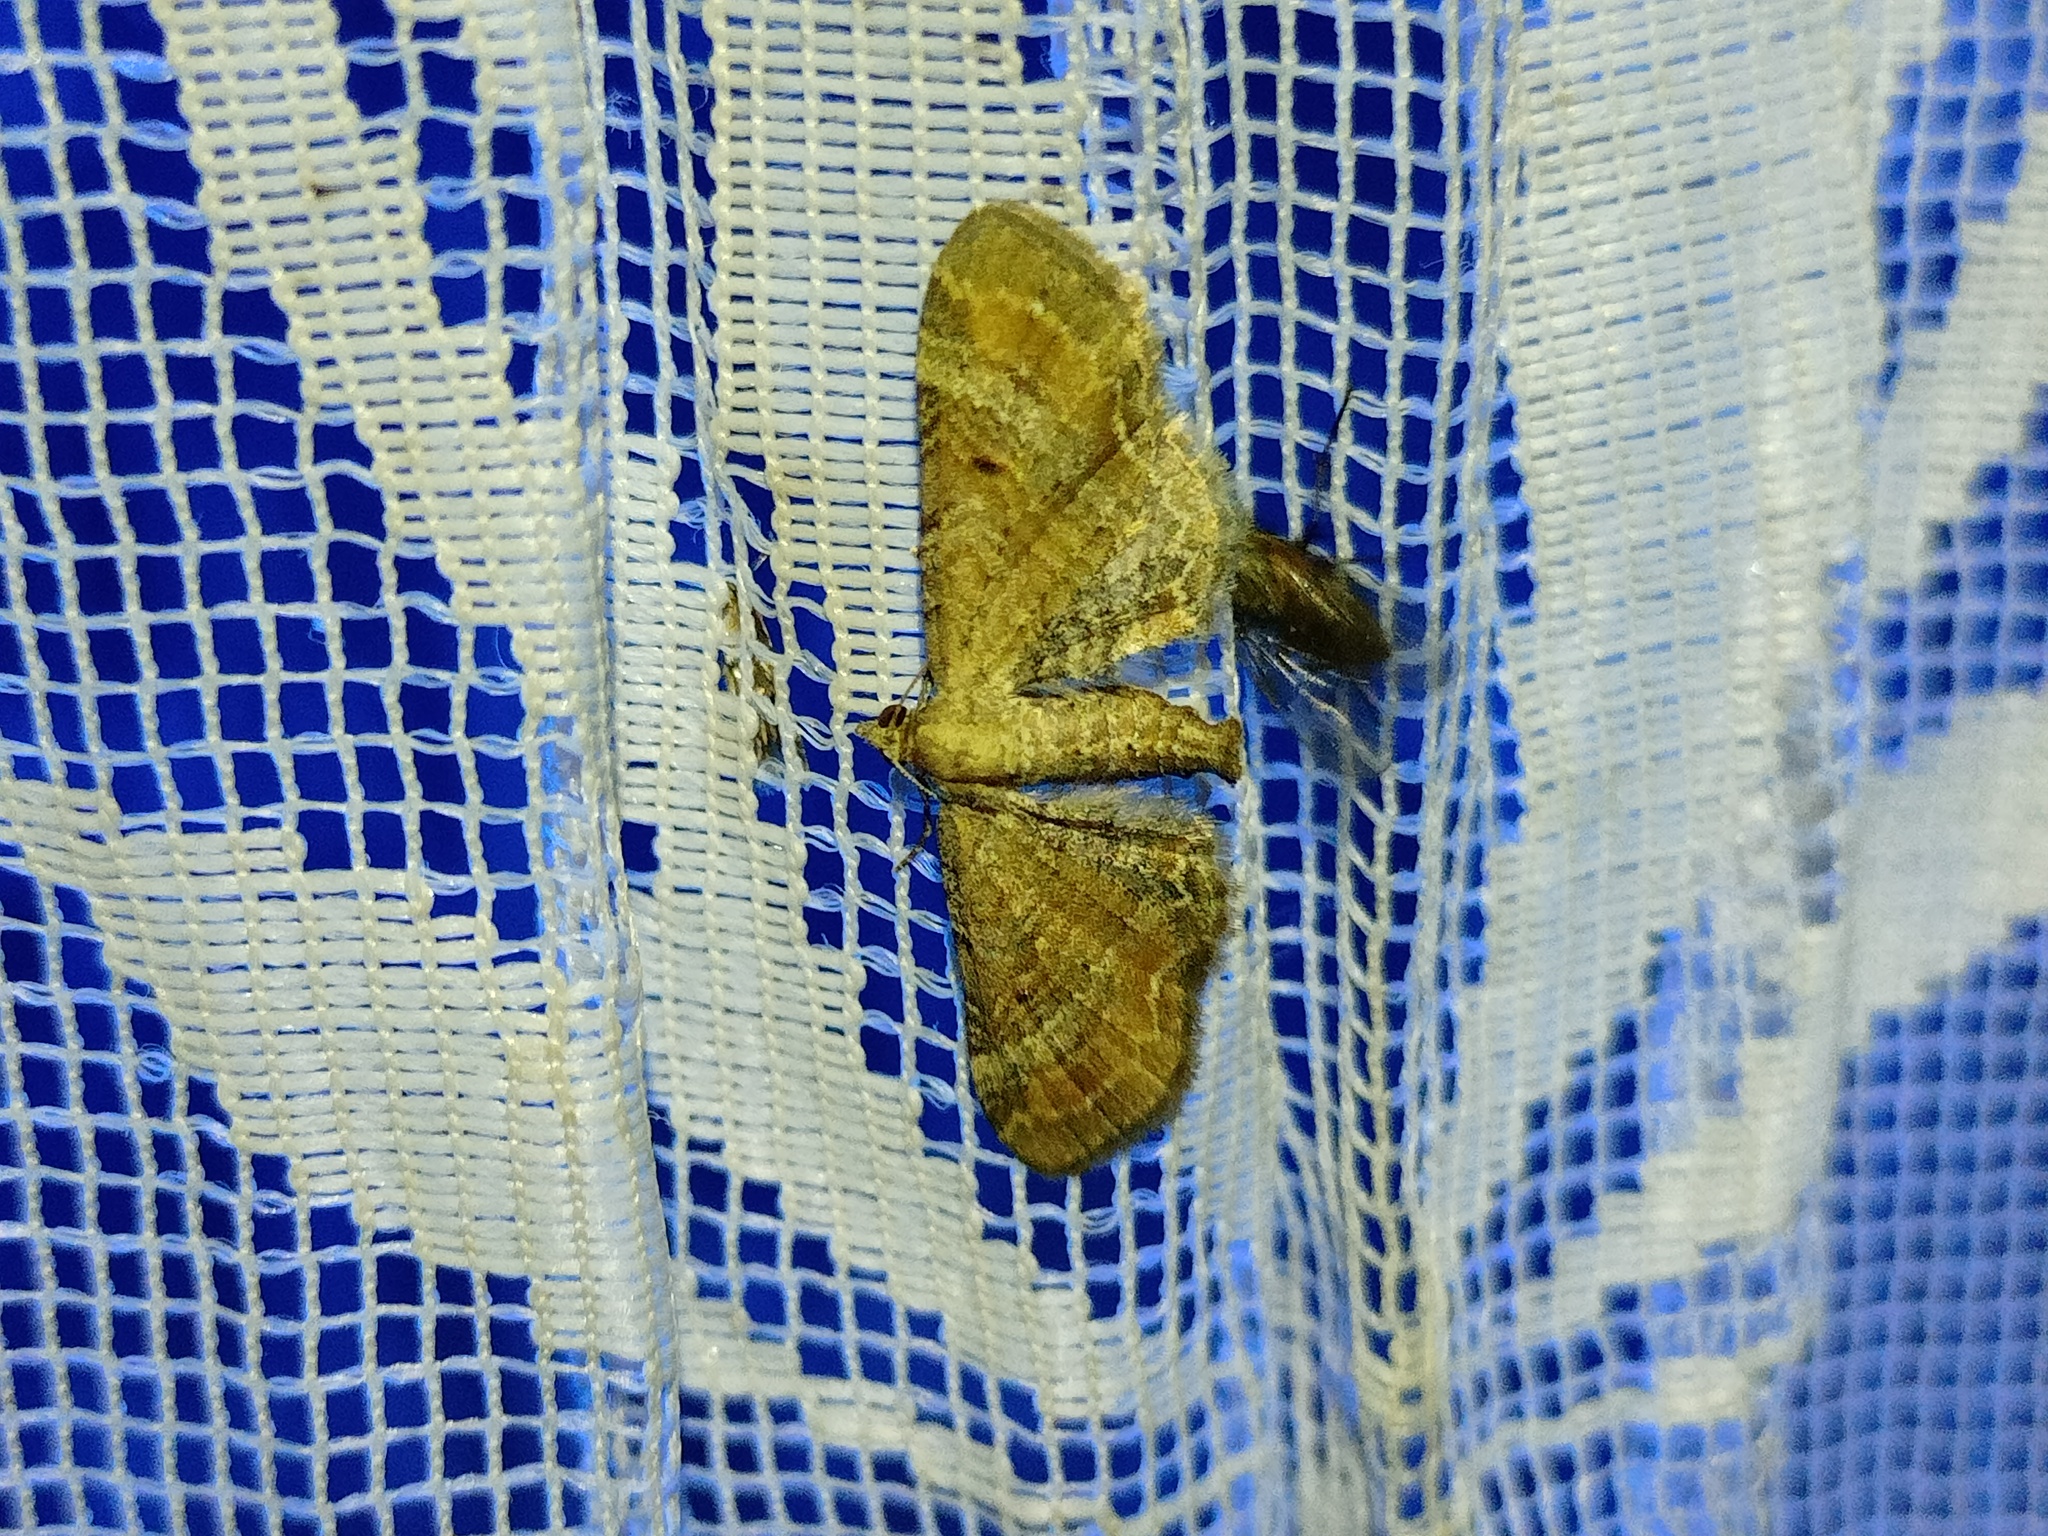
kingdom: Animalia
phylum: Arthropoda
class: Insecta
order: Lepidoptera
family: Geometridae
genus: Eupithecia
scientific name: Eupithecia simpliciata
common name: Plain pug
